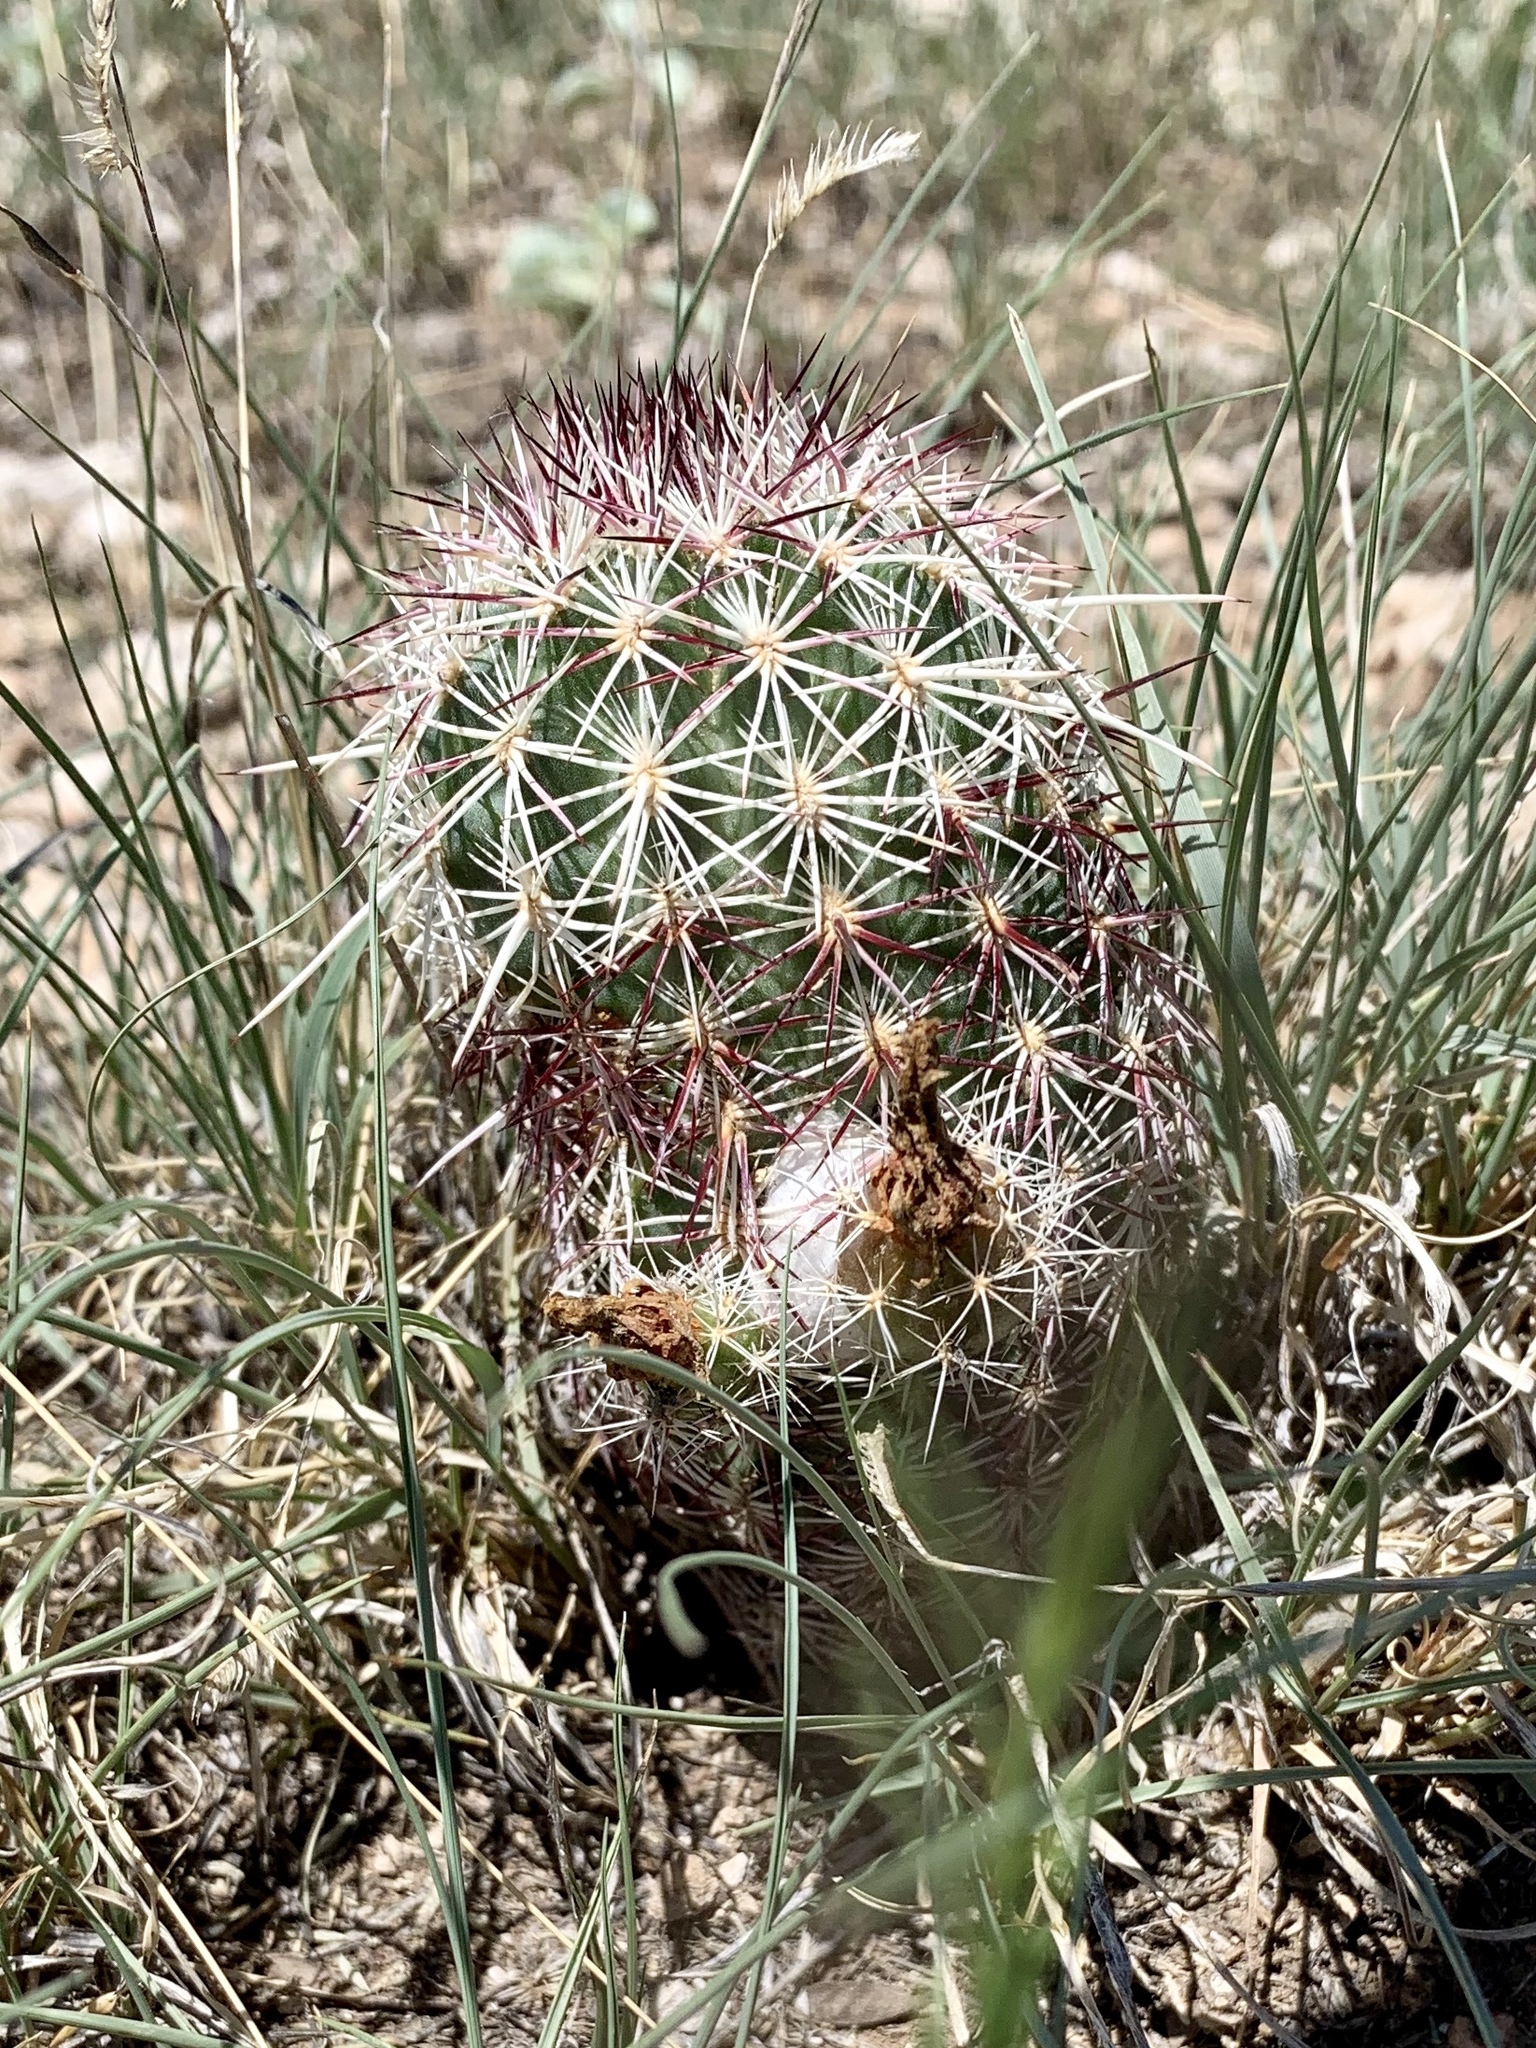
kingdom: Plantae
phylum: Tracheophyta
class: Magnoliopsida
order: Caryophyllales
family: Cactaceae
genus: Echinocereus
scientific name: Echinocereus viridiflorus
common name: Nylon hedgehog cactus
